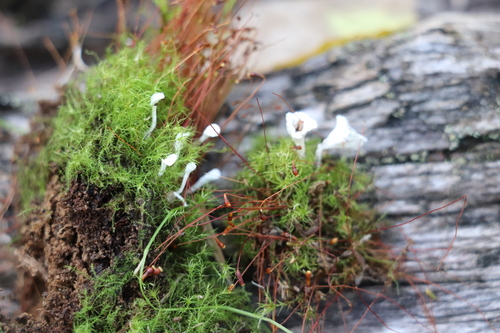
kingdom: Fungi
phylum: Basidiomycota
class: Agaricomycetes
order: Hymenochaetales
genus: Muscinupta
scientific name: Muscinupta laevis
